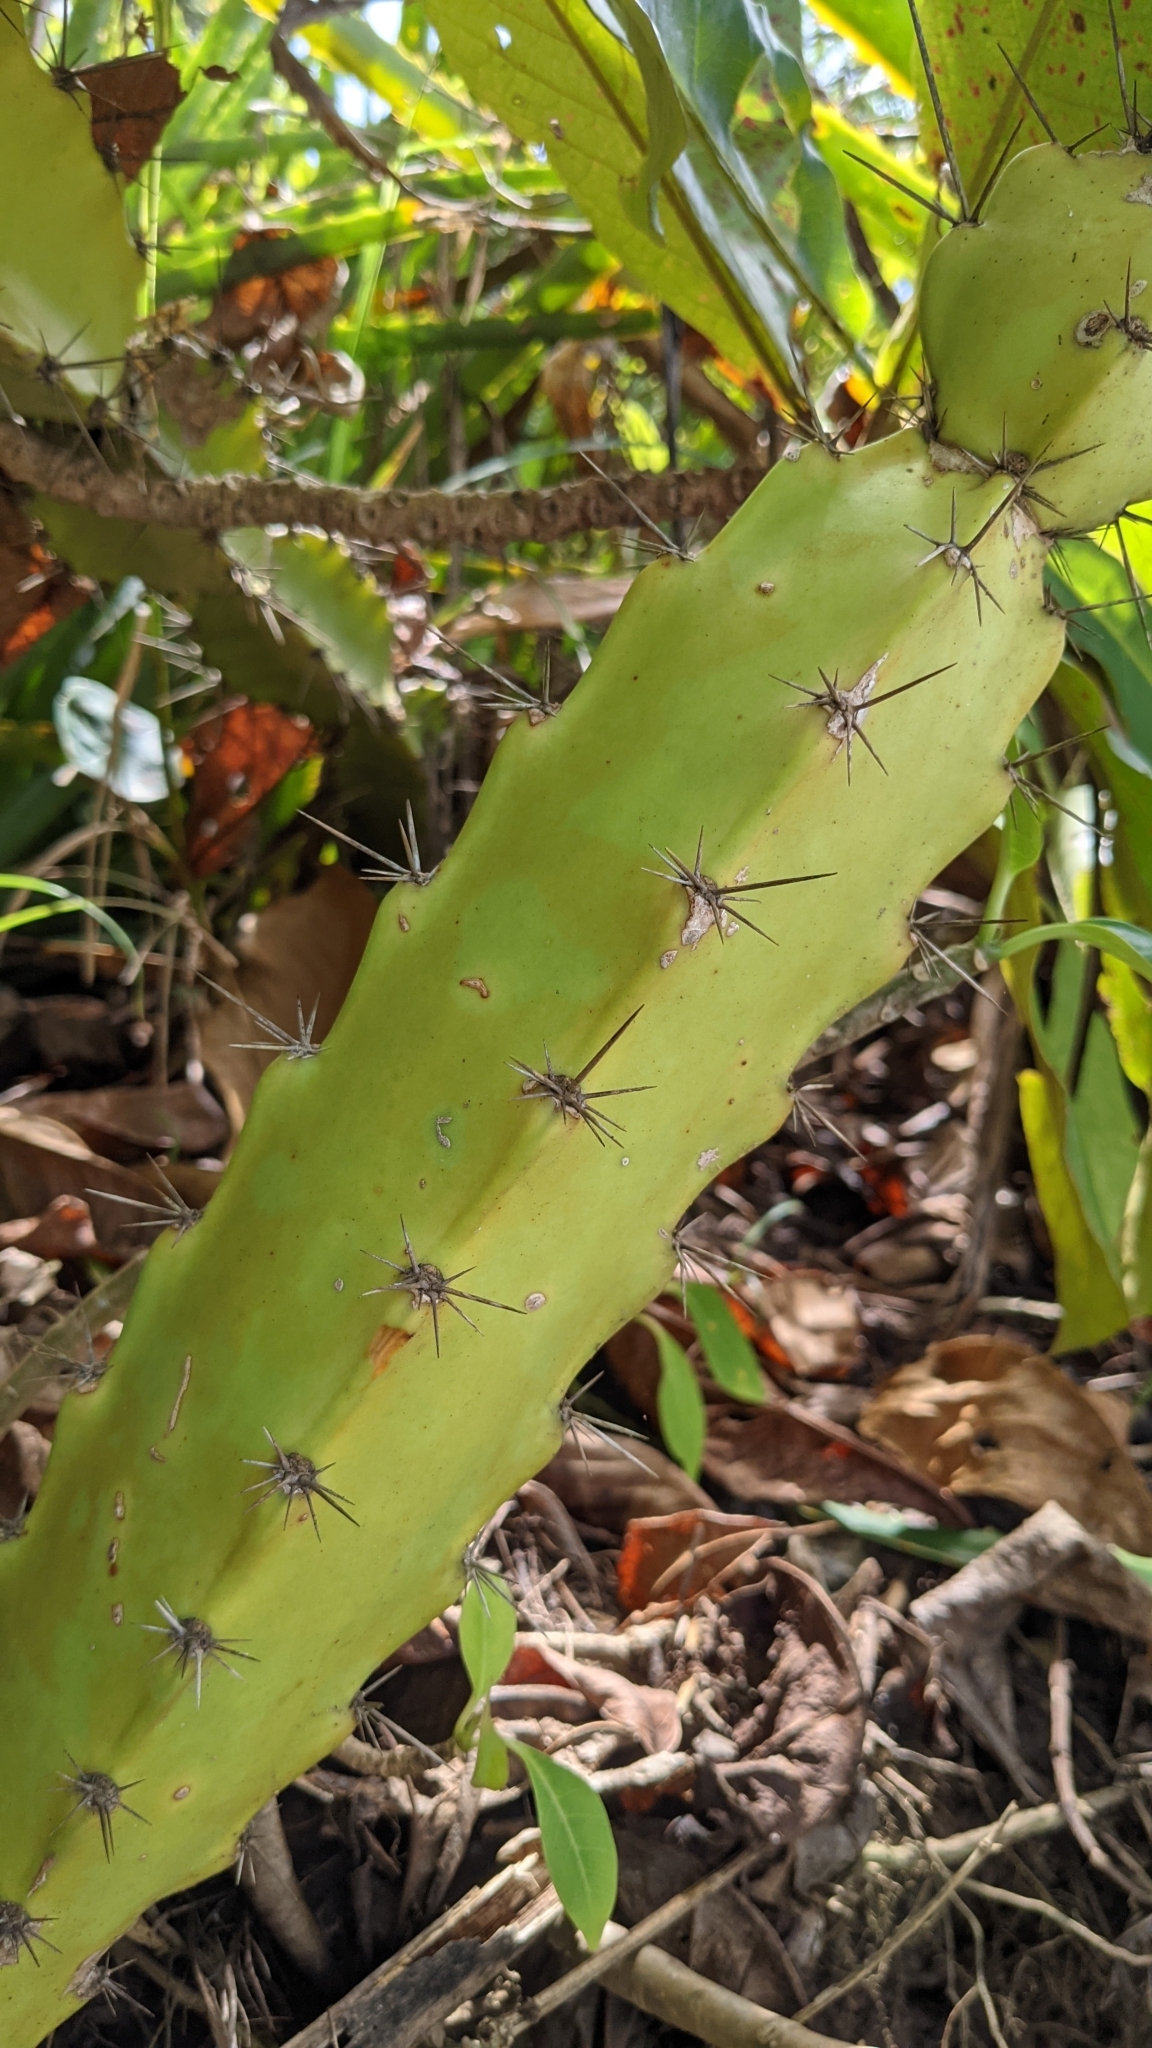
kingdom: Plantae
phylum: Tracheophyta
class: Magnoliopsida
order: Caryophyllales
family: Cactaceae
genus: Acanthocereus
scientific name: Acanthocereus tetragonus
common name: Triangle cactus
